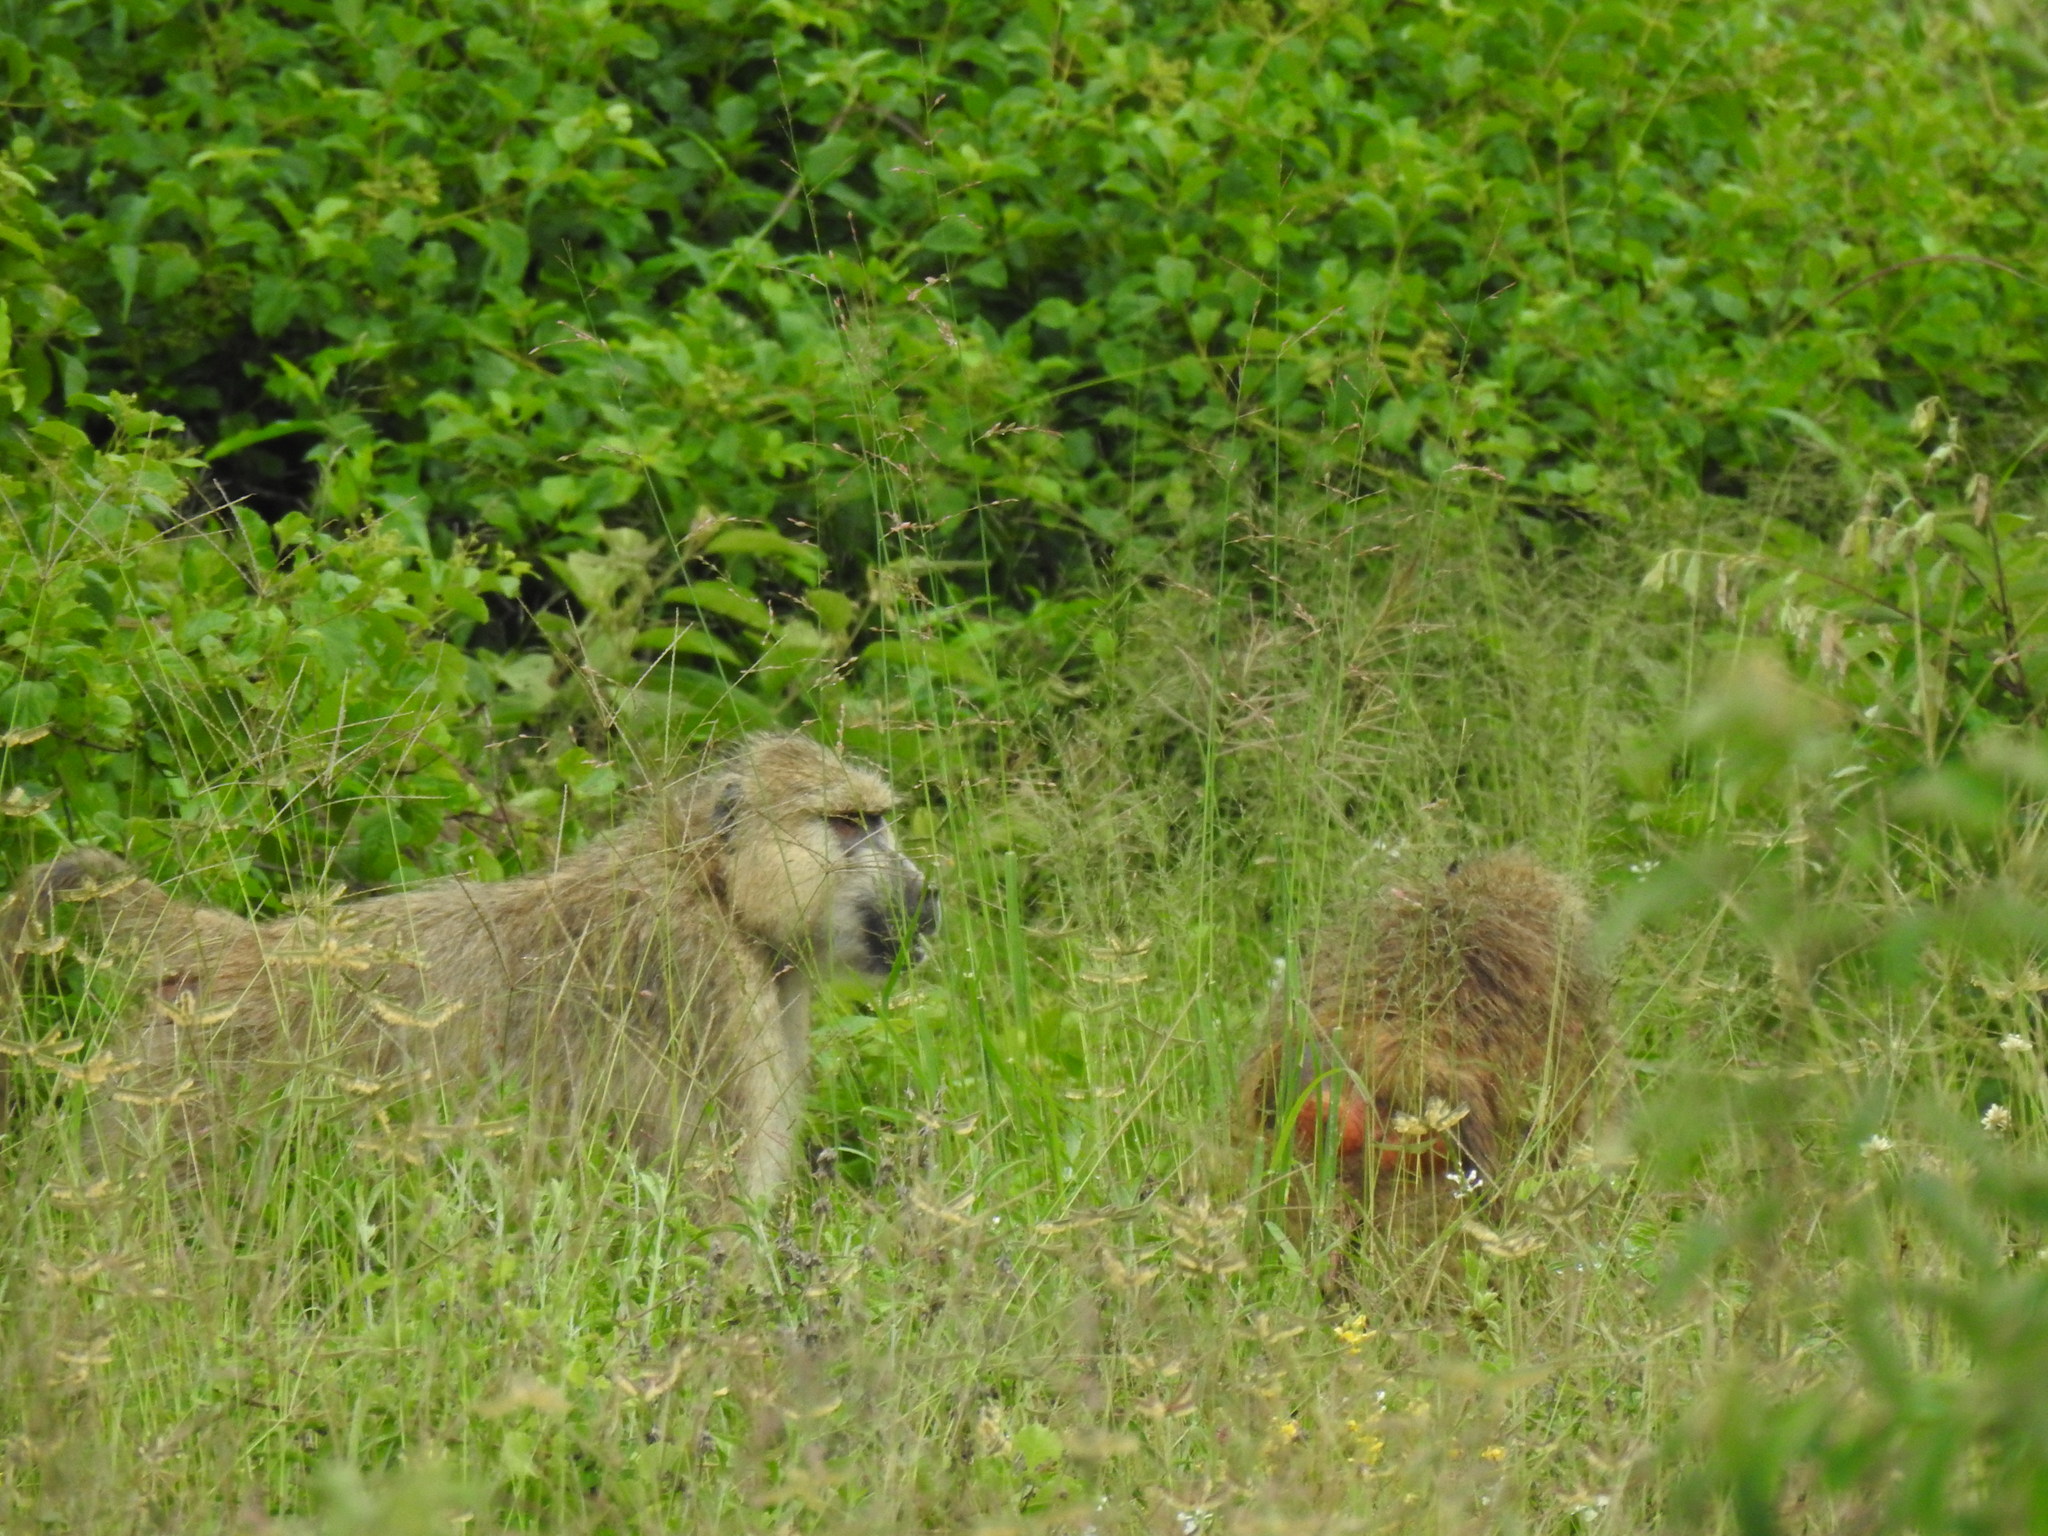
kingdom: Animalia
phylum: Chordata
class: Mammalia
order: Primates
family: Cercopithecidae
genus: Papio
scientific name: Papio cynocephalus
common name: Yellow baboon
